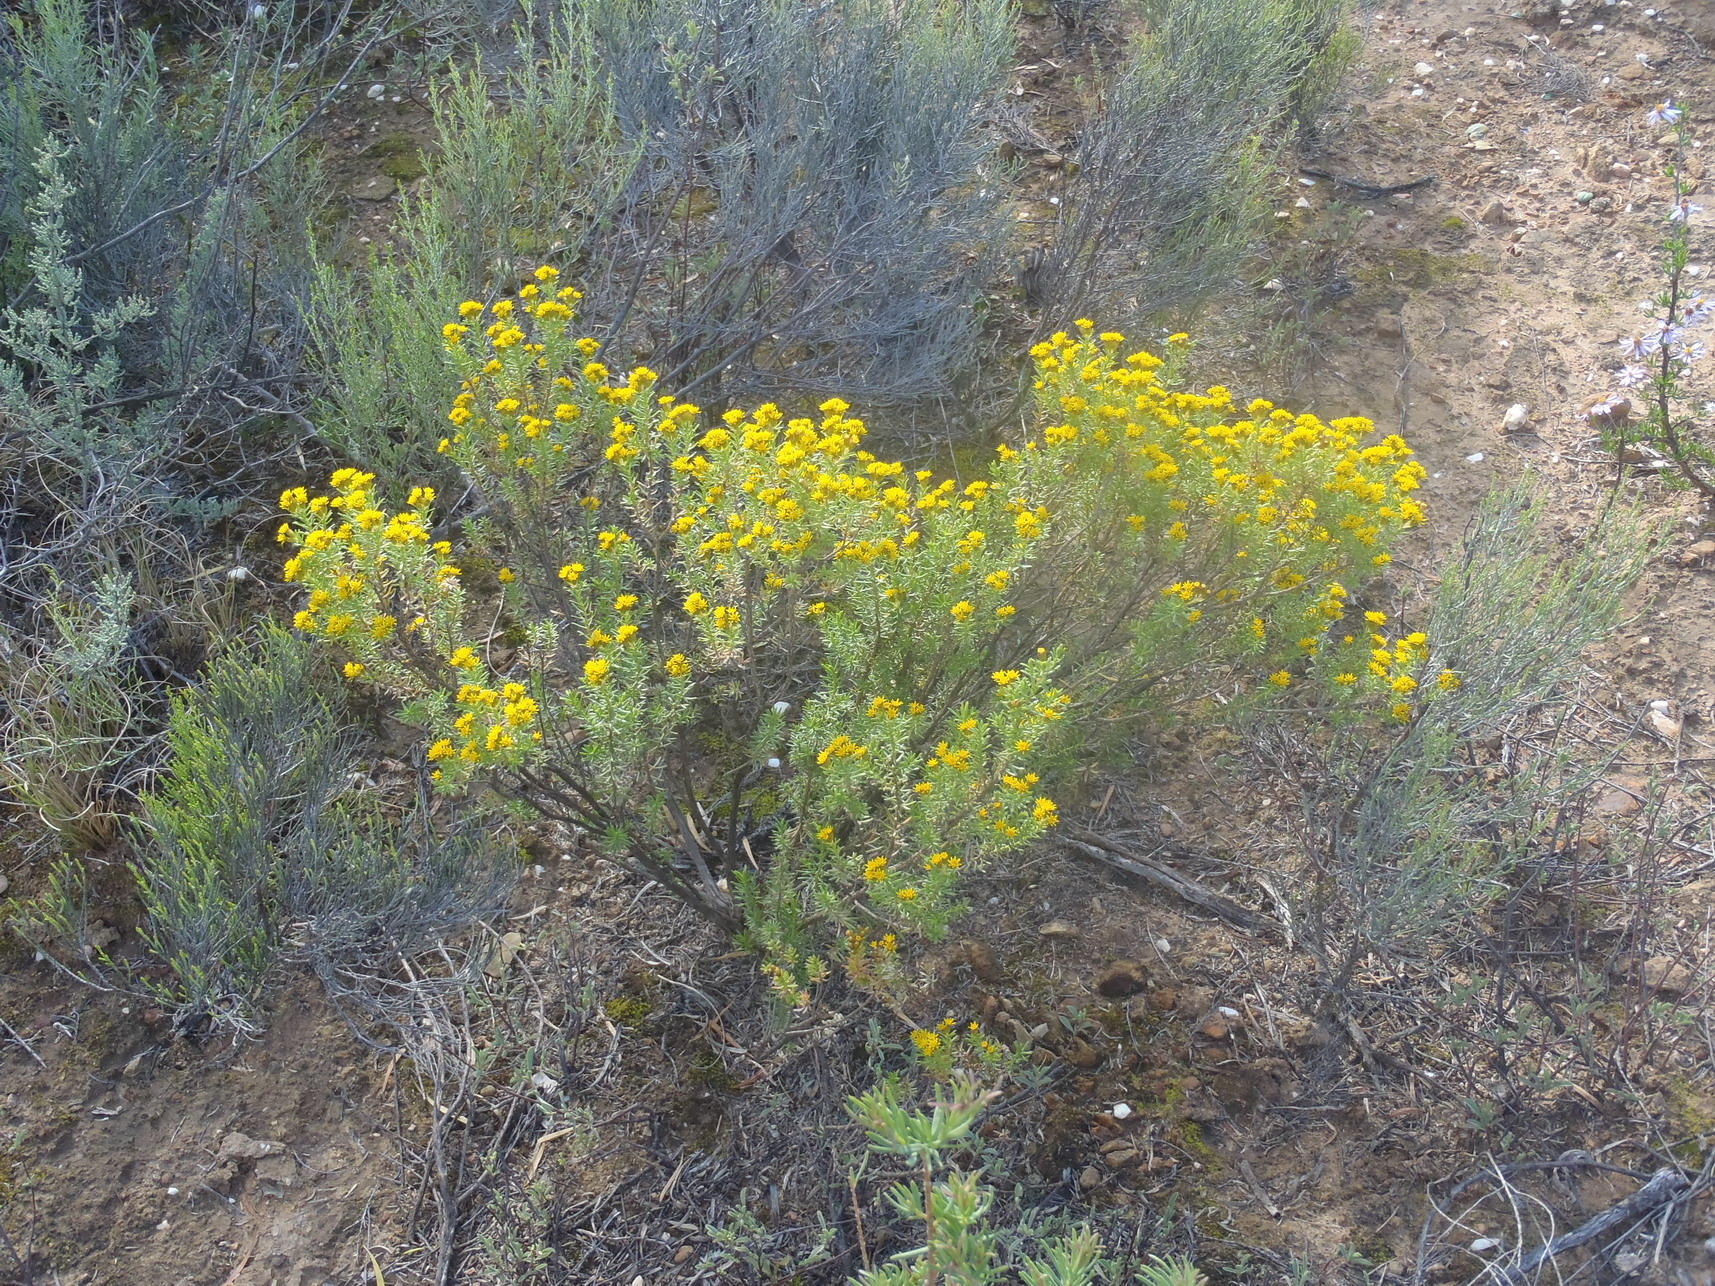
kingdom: Plantae
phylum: Tracheophyta
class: Magnoliopsida
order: Asterales
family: Asteraceae
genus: Oedera
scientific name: Oedera genistifolia
